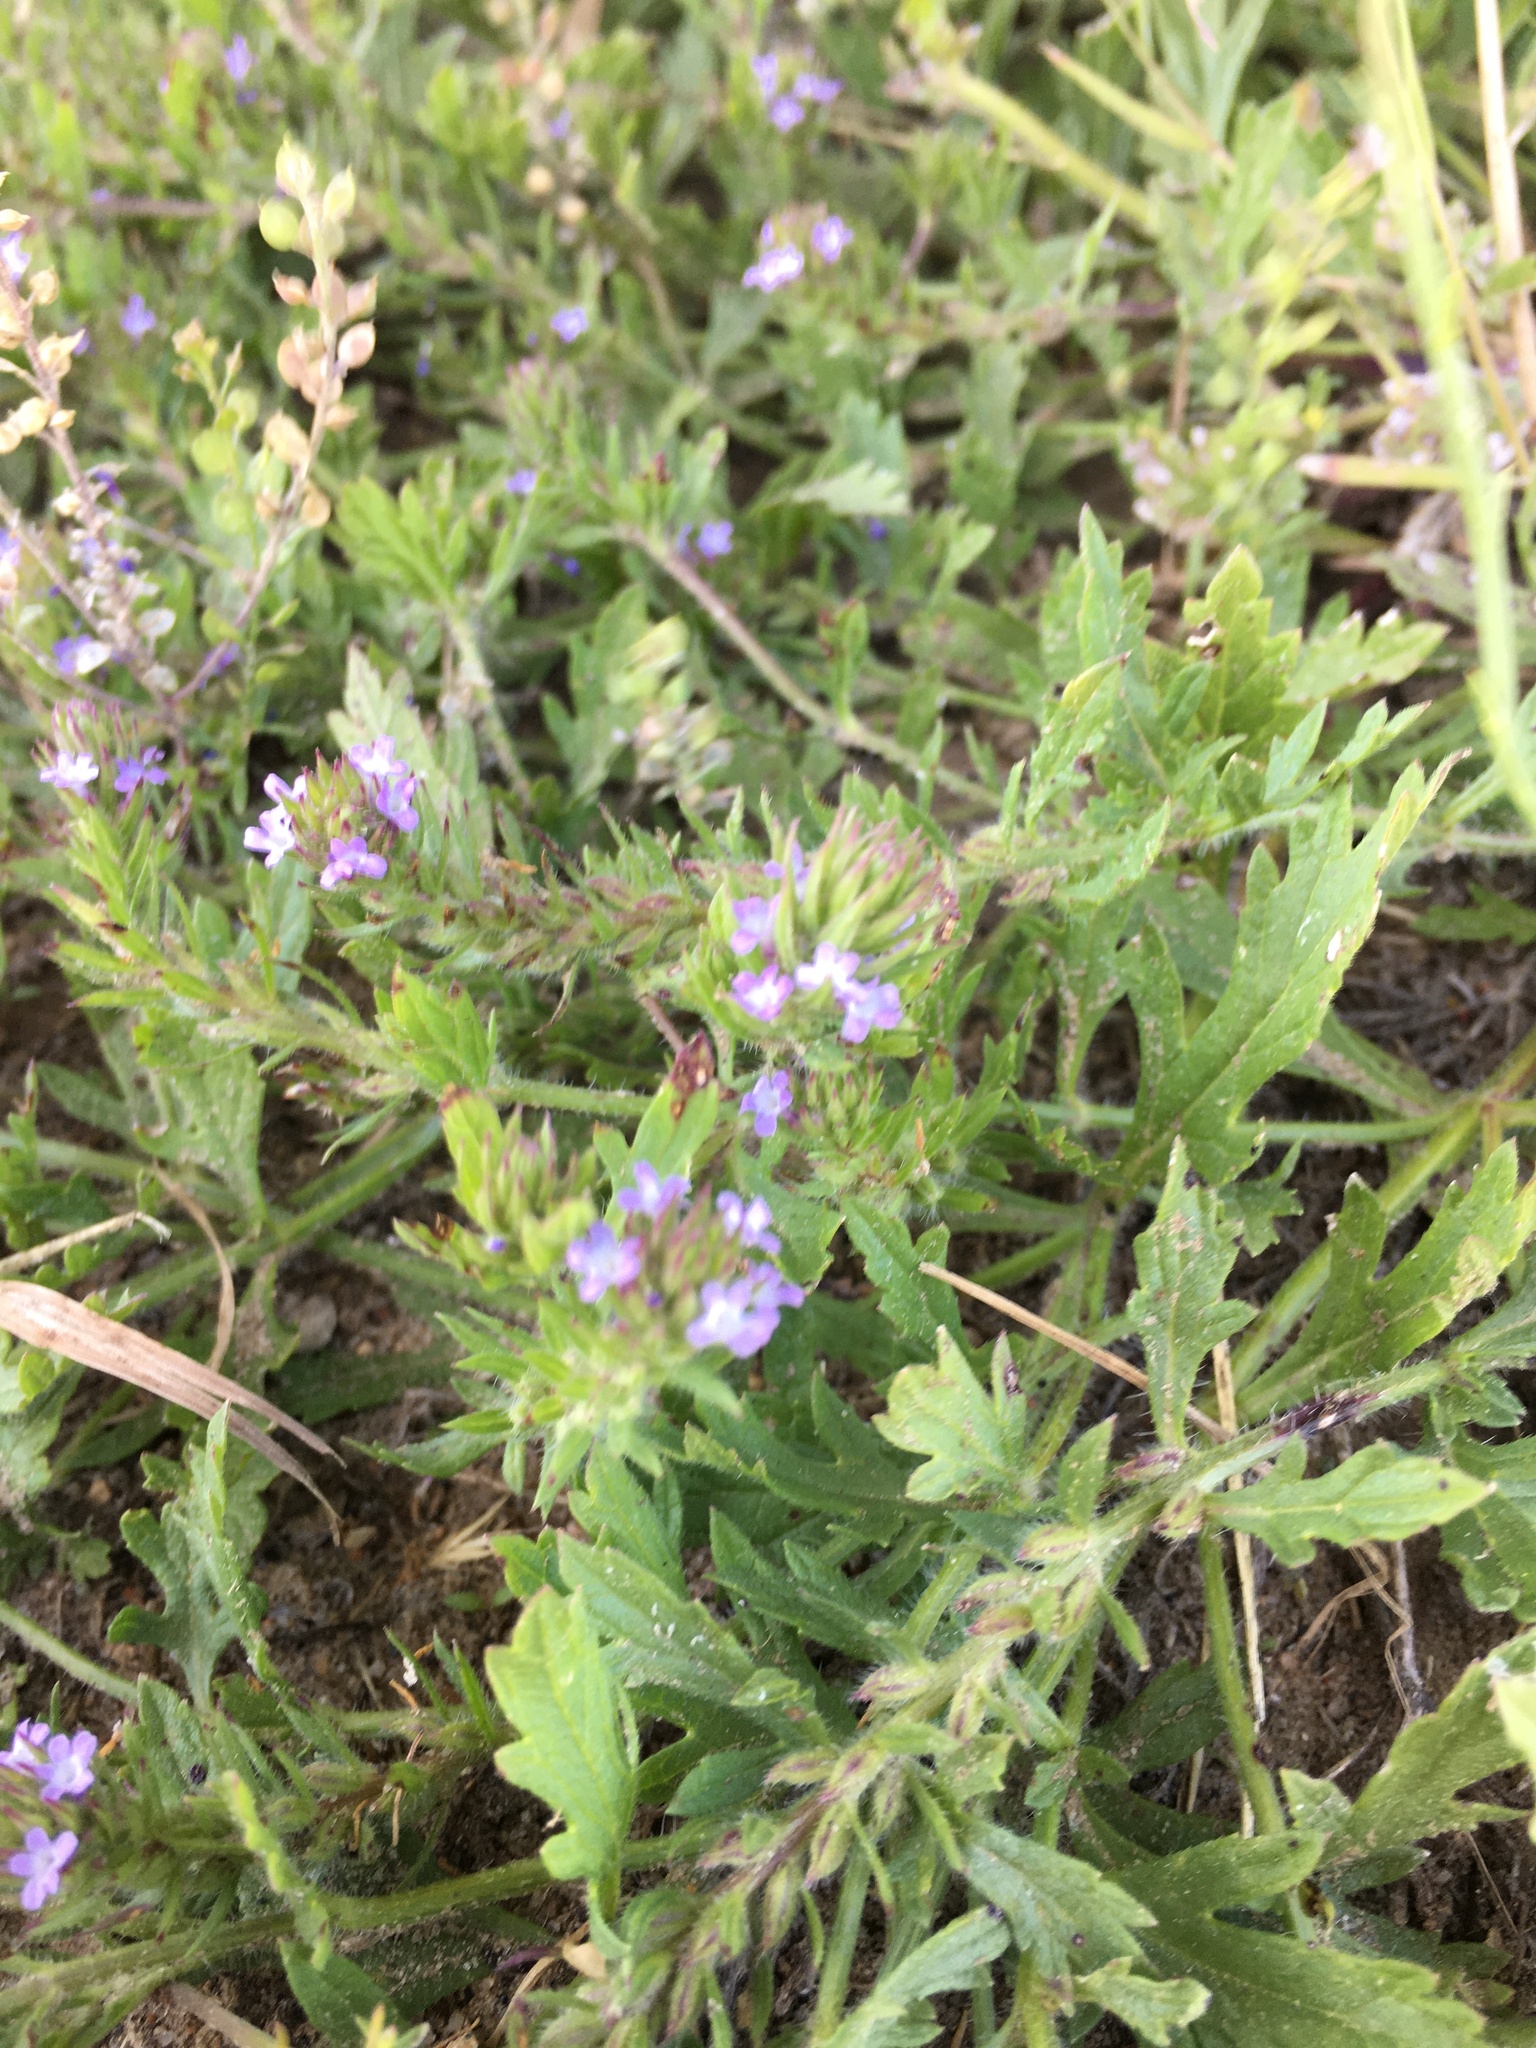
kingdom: Plantae
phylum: Tracheophyta
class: Magnoliopsida
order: Lamiales
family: Verbenaceae
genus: Verbena
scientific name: Verbena bracteata
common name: Bracted vervain
